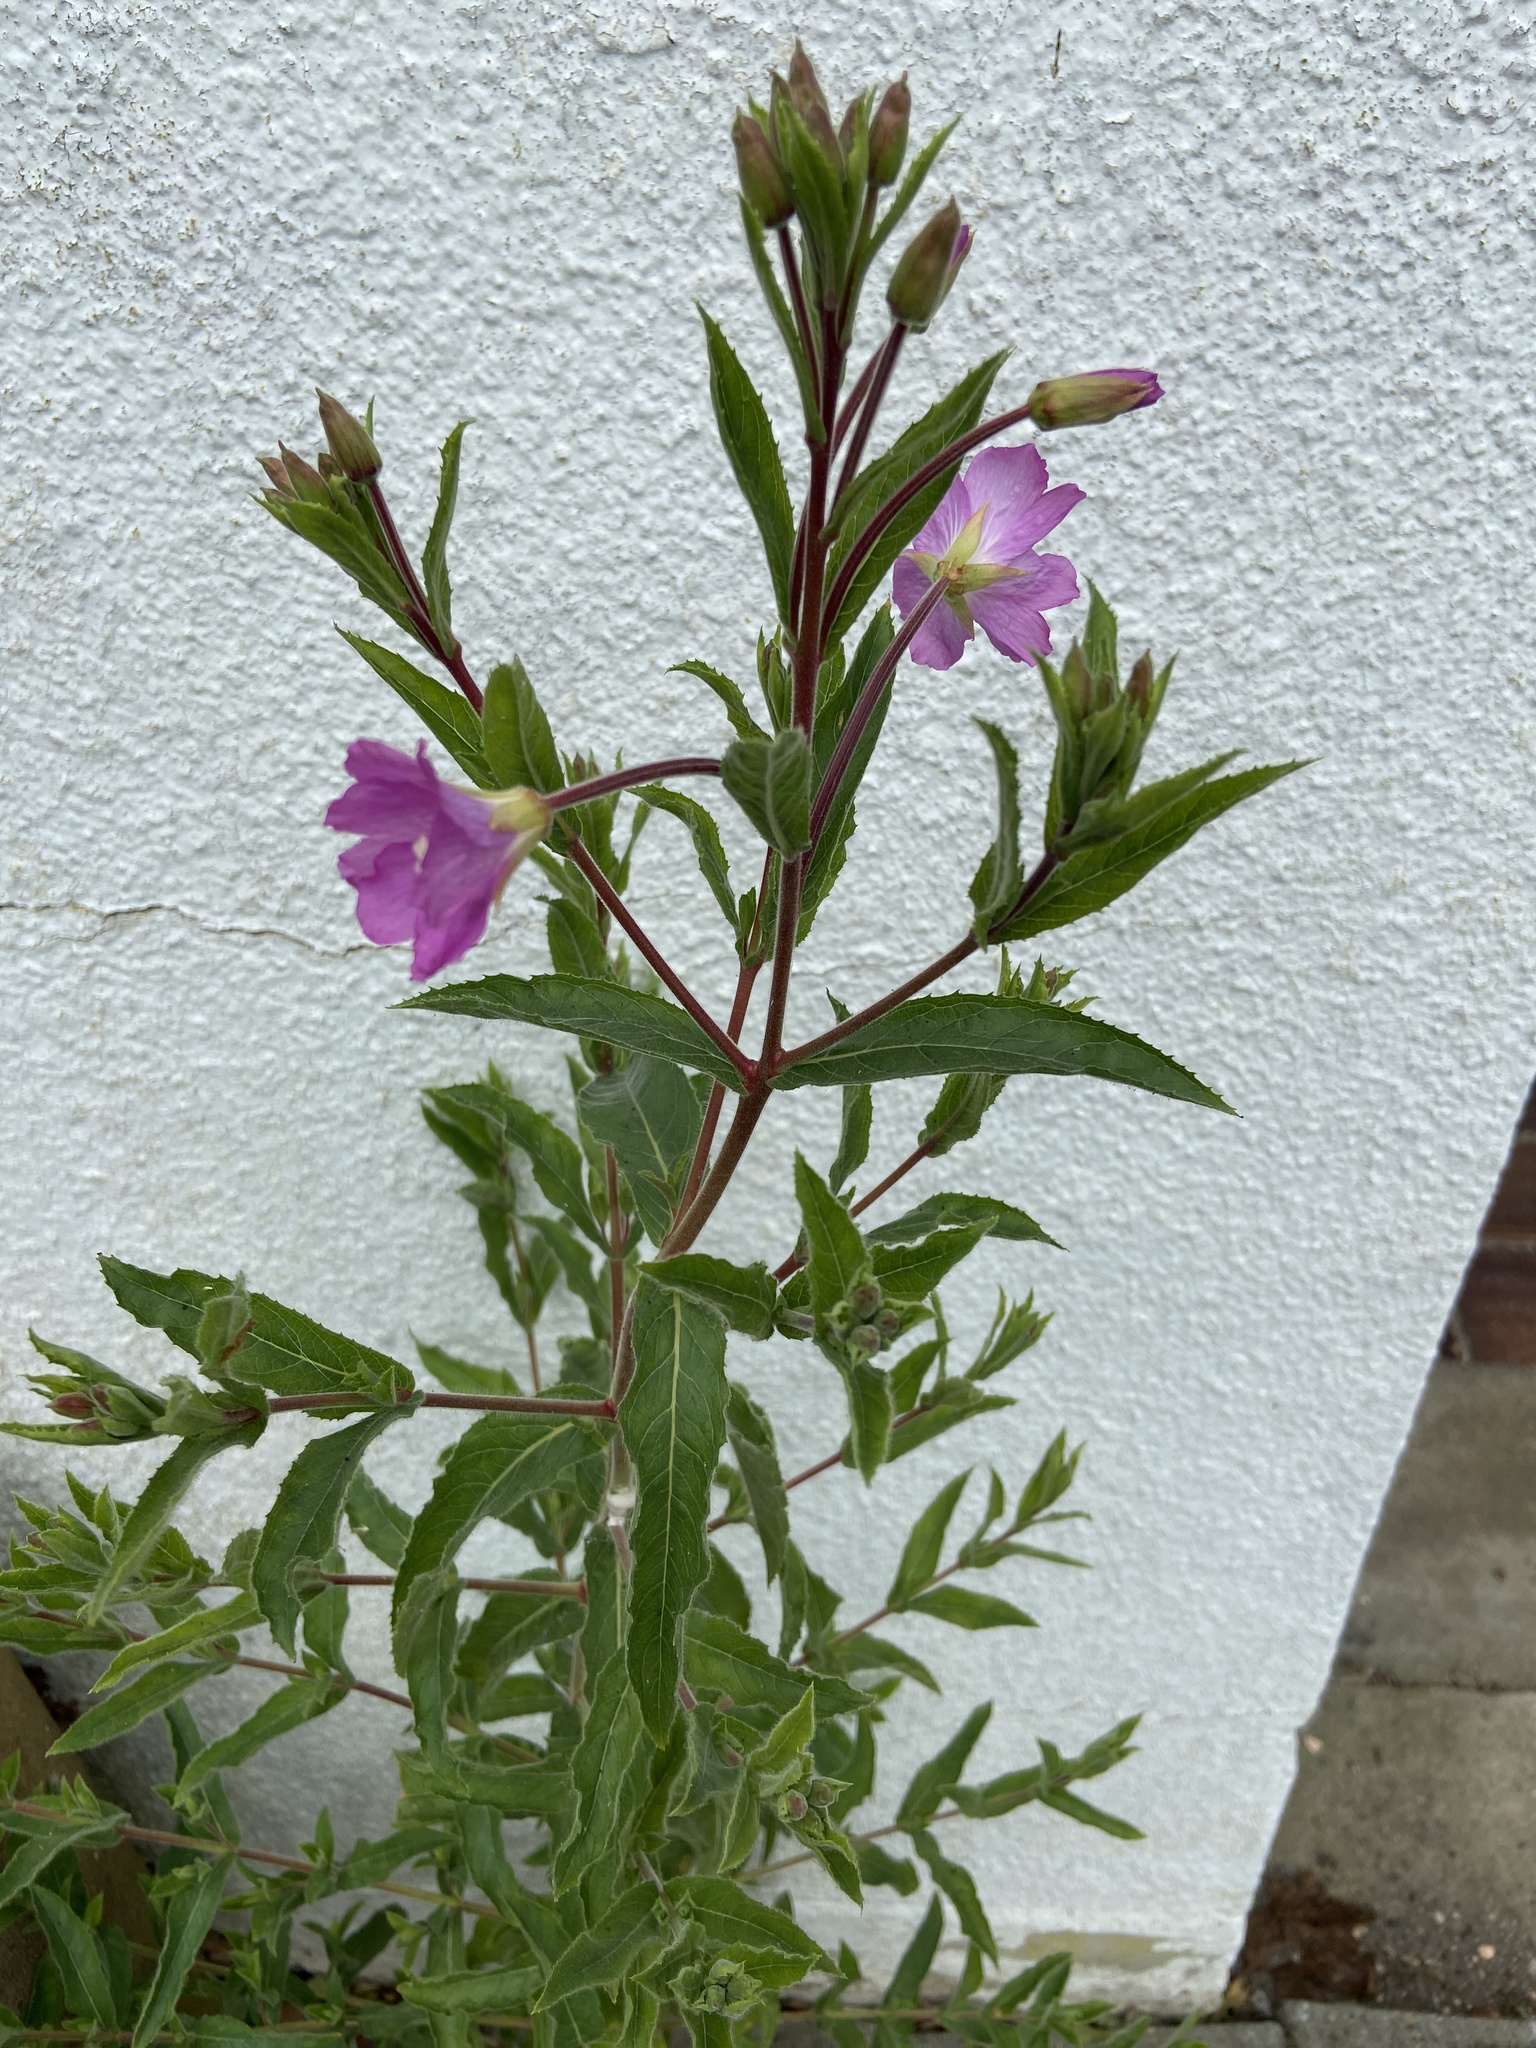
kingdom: Plantae
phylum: Tracheophyta
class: Magnoliopsida
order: Myrtales
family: Onagraceae
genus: Epilobium
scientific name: Epilobium hirsutum
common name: Great willowherb
